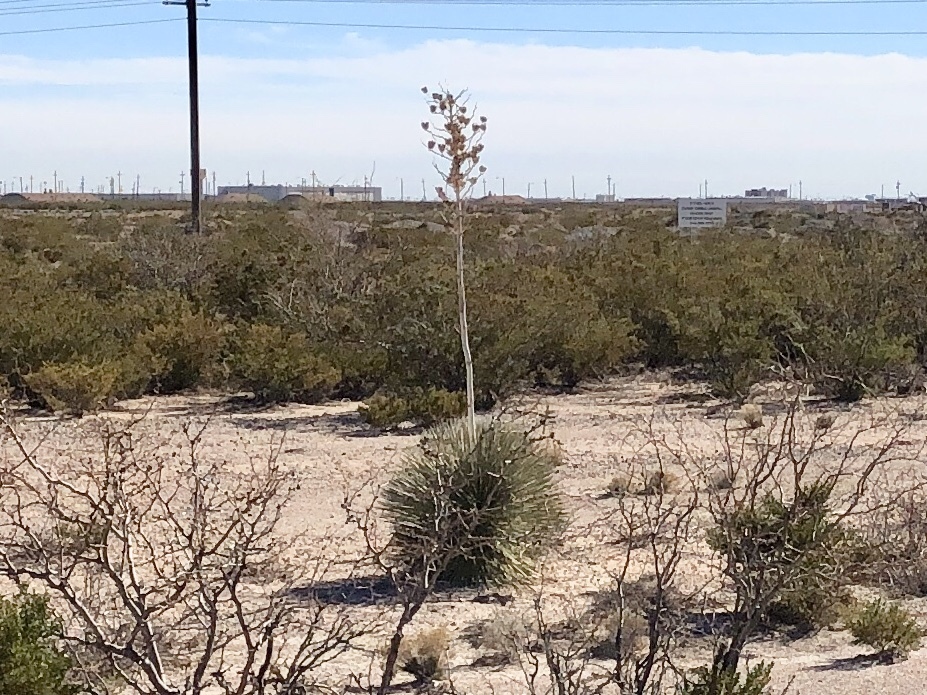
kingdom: Plantae
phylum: Tracheophyta
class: Liliopsida
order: Asparagales
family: Asparagaceae
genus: Yucca
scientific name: Yucca elata
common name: Palmella
